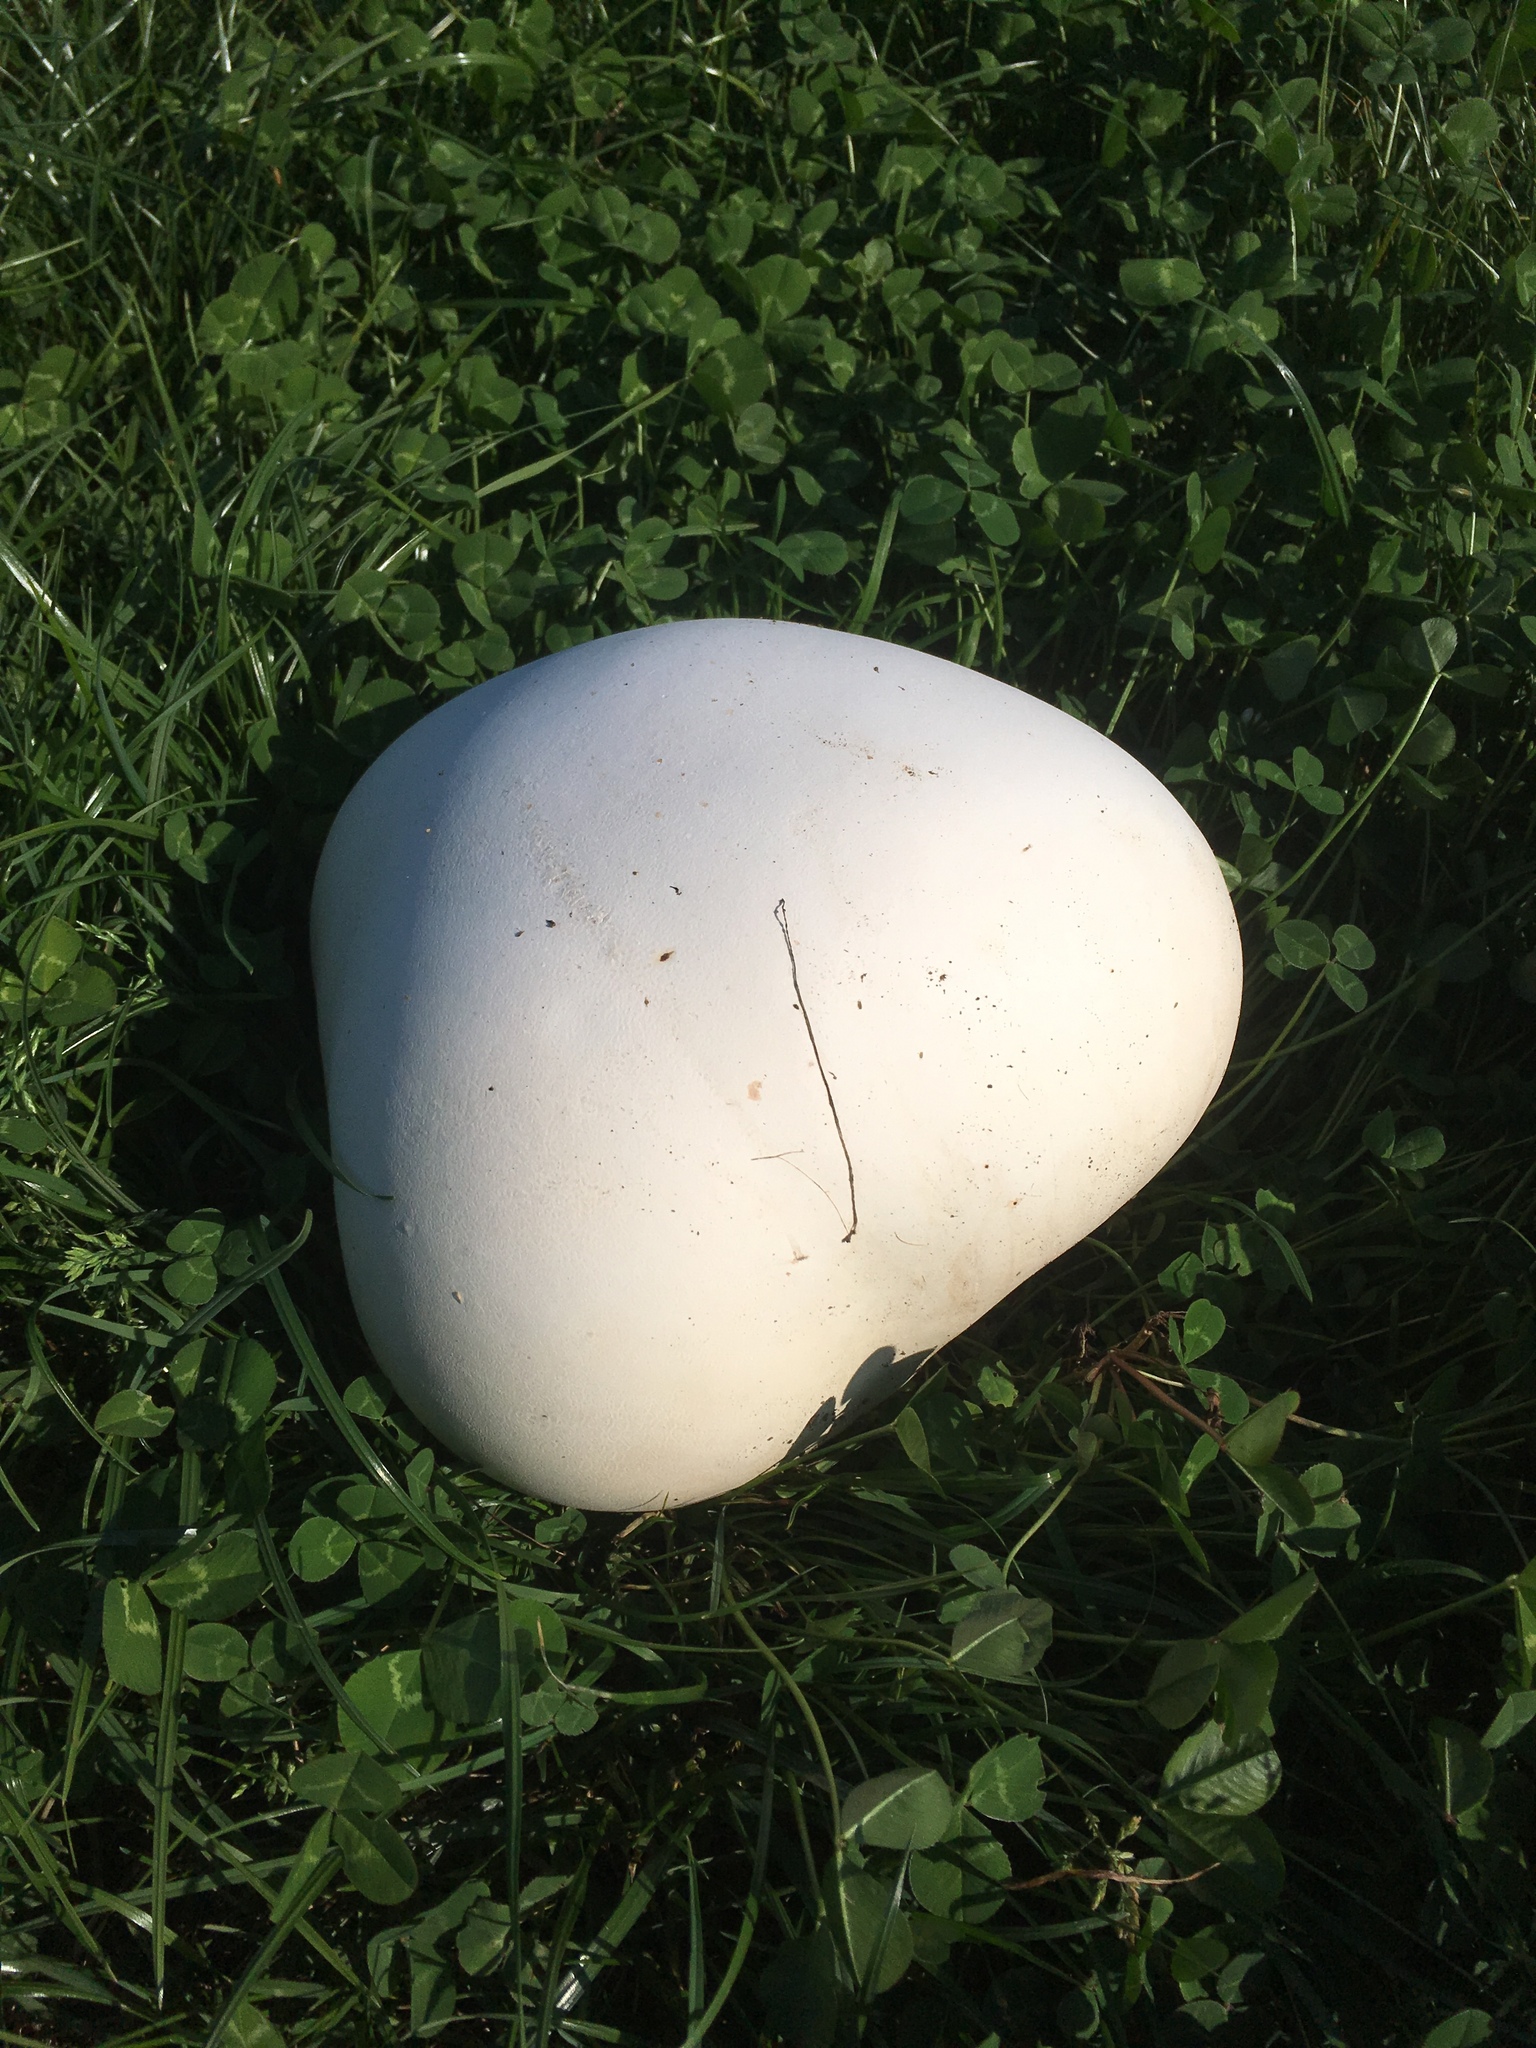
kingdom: Fungi
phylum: Basidiomycota
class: Agaricomycetes
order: Agaricales
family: Lycoperdaceae
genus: Calvatia
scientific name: Calvatia gigantea
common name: Giant puffball
